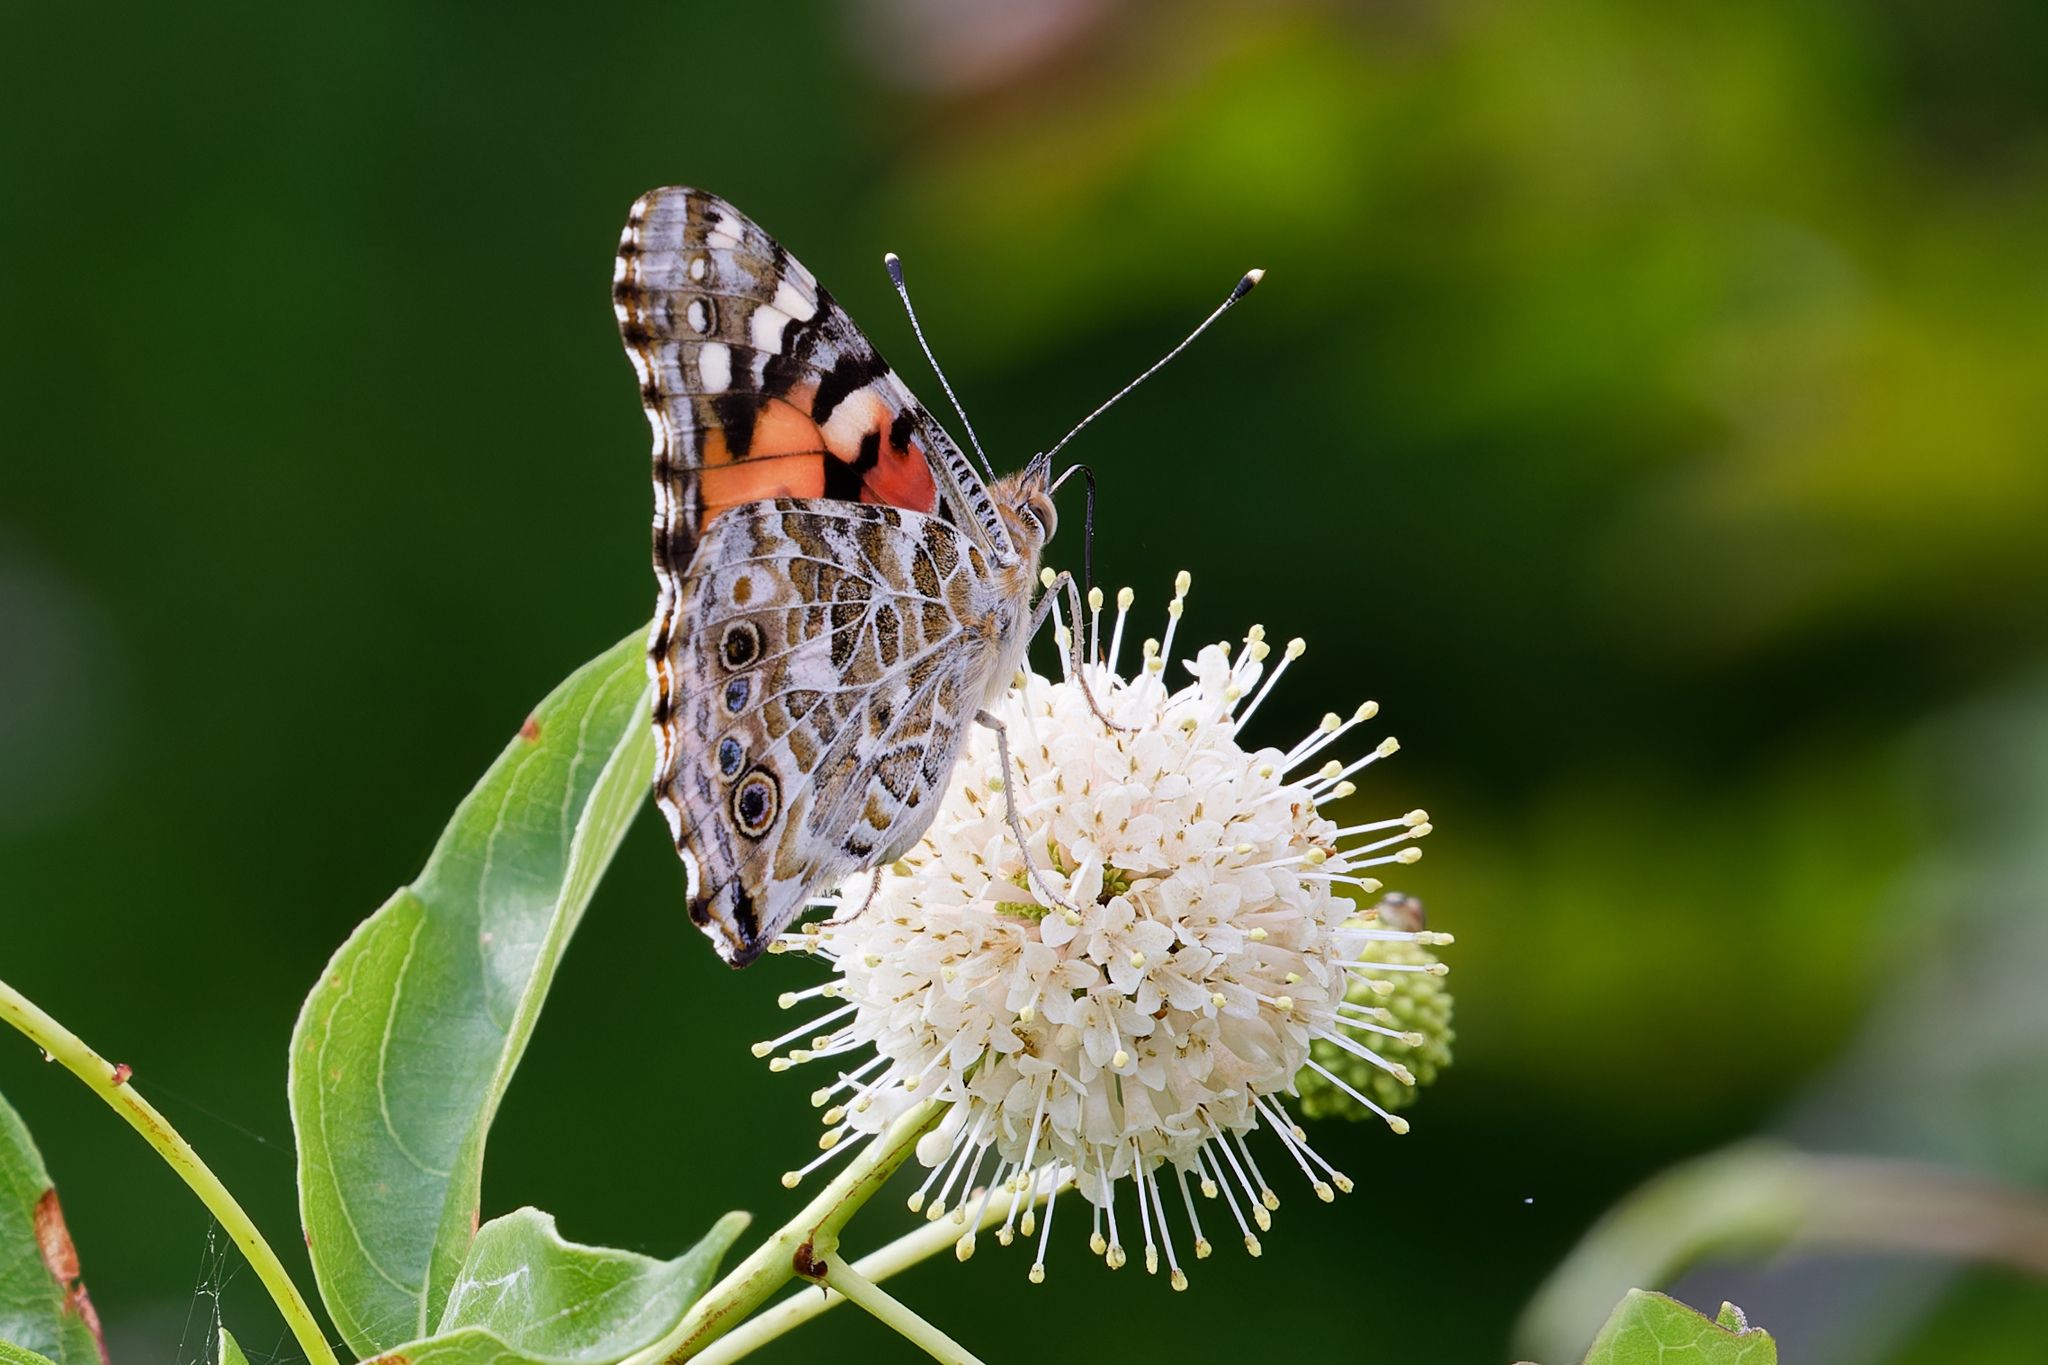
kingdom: Animalia
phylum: Arthropoda
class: Insecta
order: Lepidoptera
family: Nymphalidae
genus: Vanessa
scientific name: Vanessa cardui
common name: Painted lady
